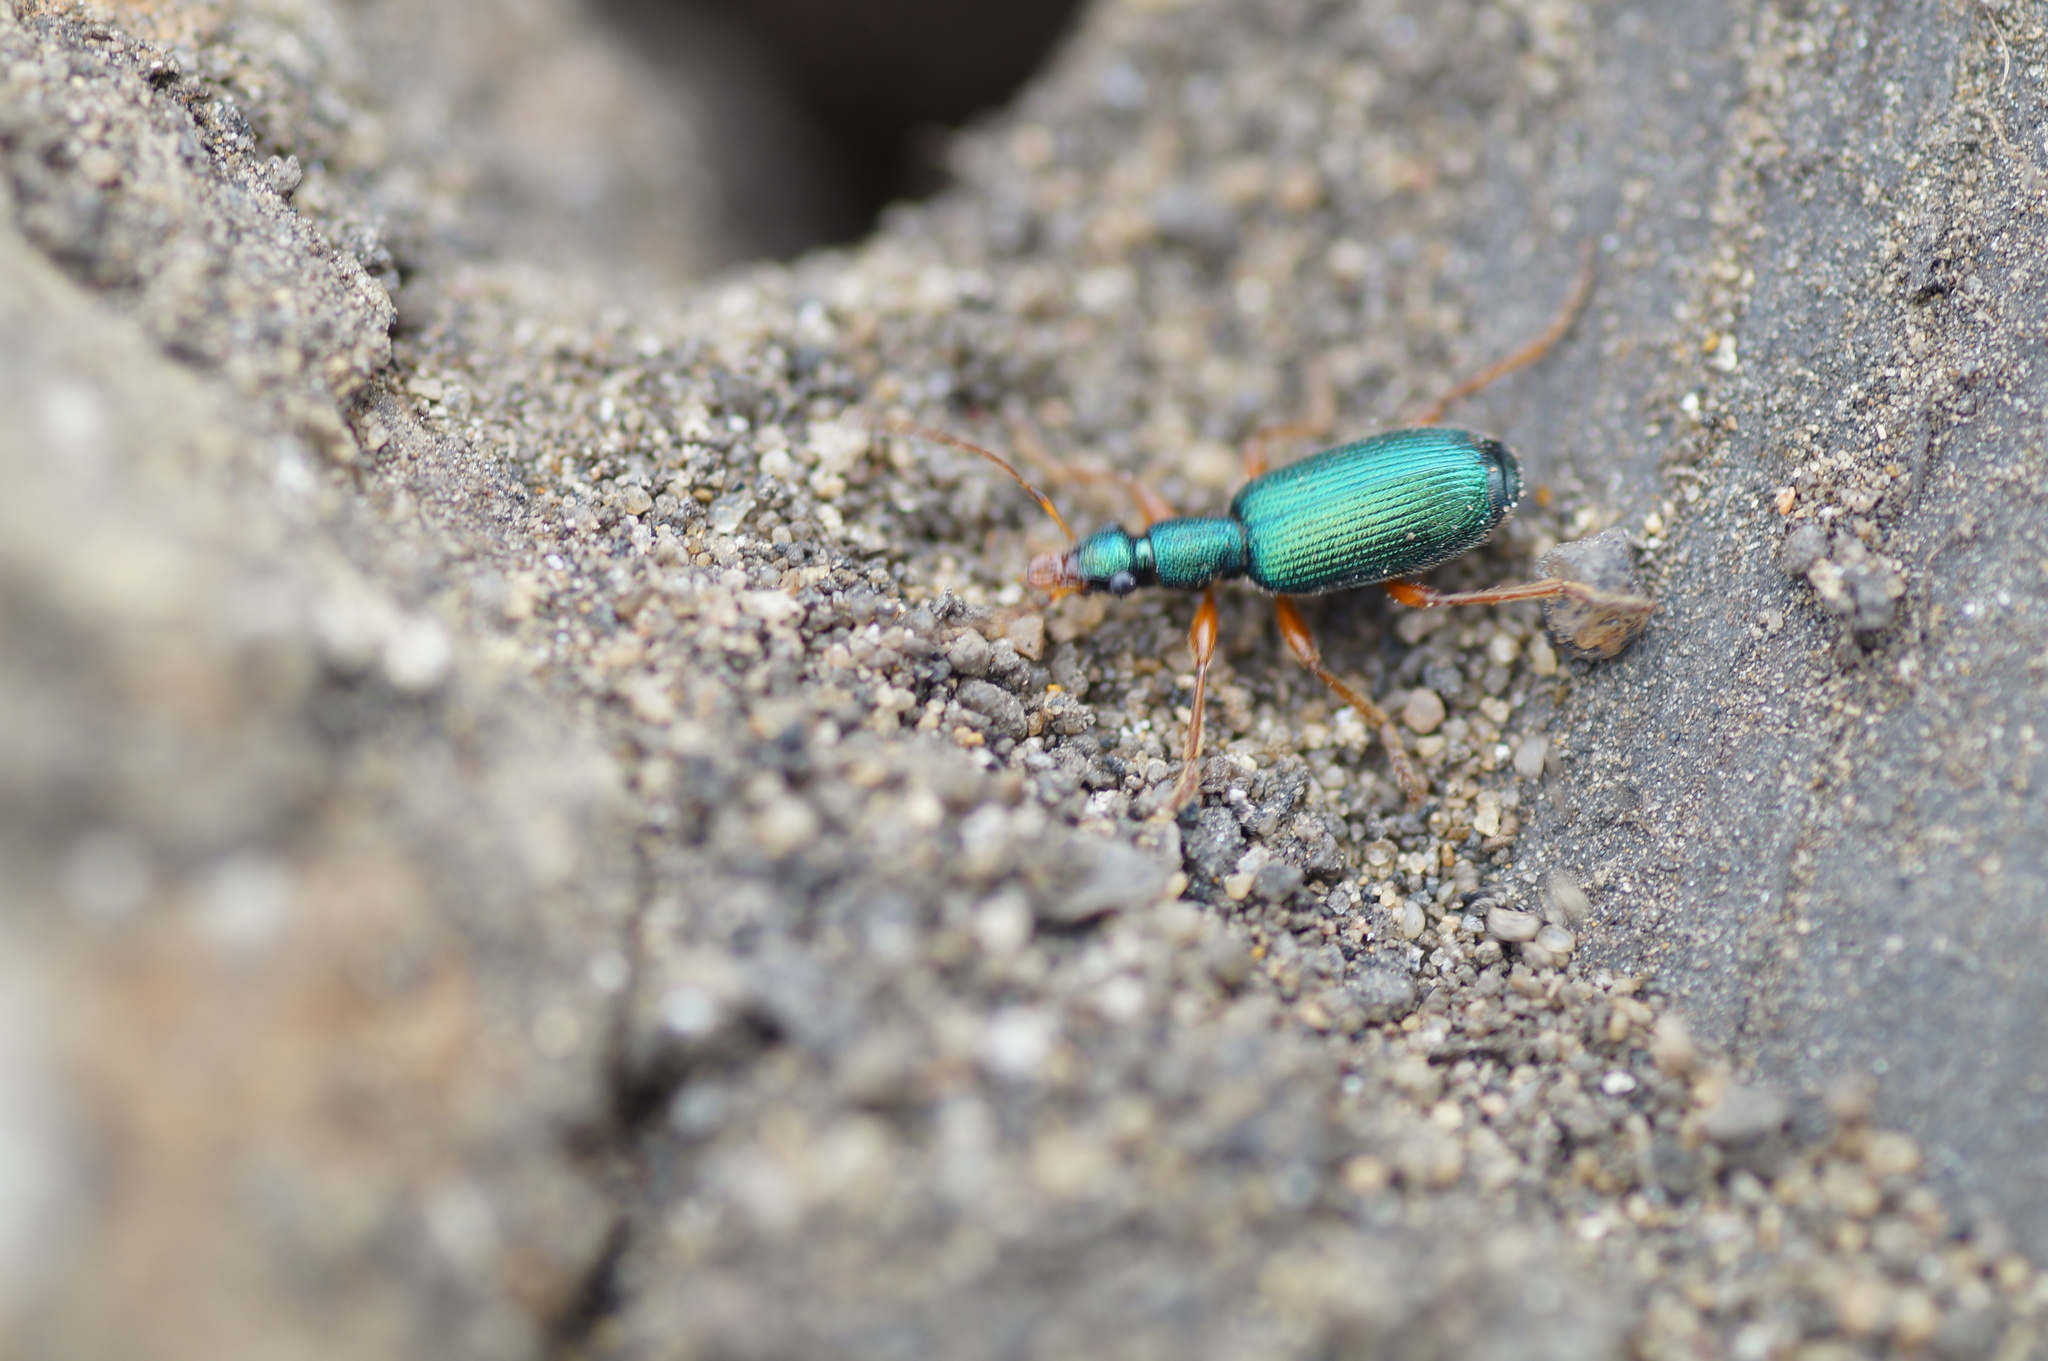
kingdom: Animalia
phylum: Arthropoda
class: Insecta
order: Coleoptera
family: Carabidae
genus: Drypta
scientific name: Drypta dentata
